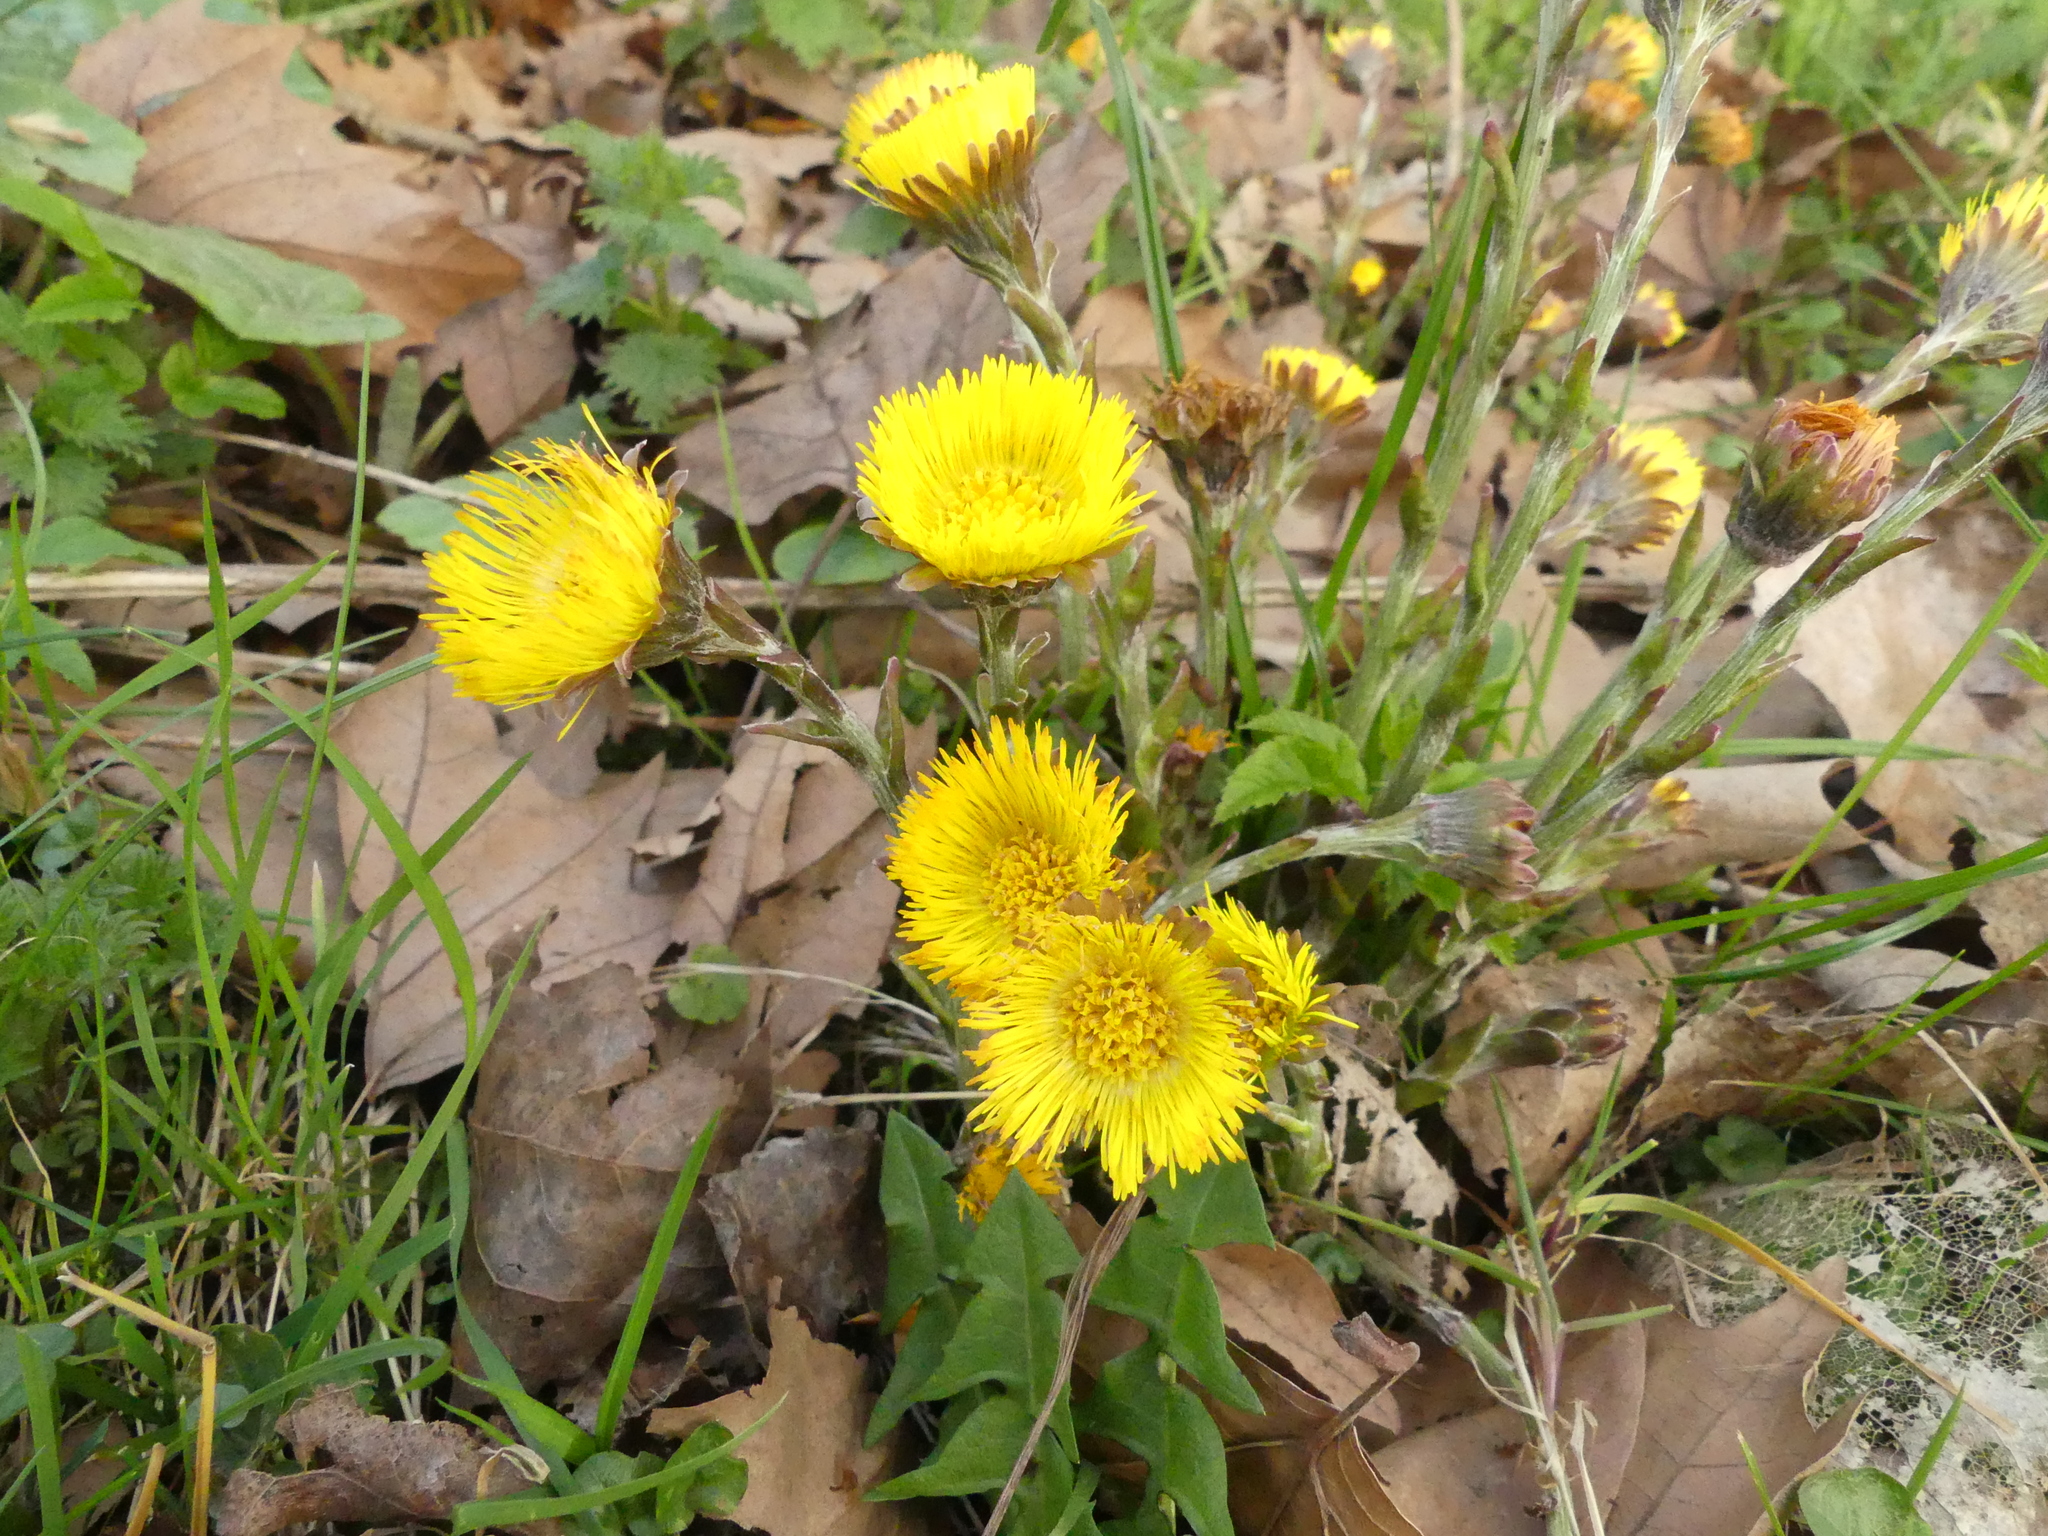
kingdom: Plantae
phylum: Tracheophyta
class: Magnoliopsida
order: Asterales
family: Asteraceae
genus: Tussilago
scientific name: Tussilago farfara
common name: Coltsfoot
